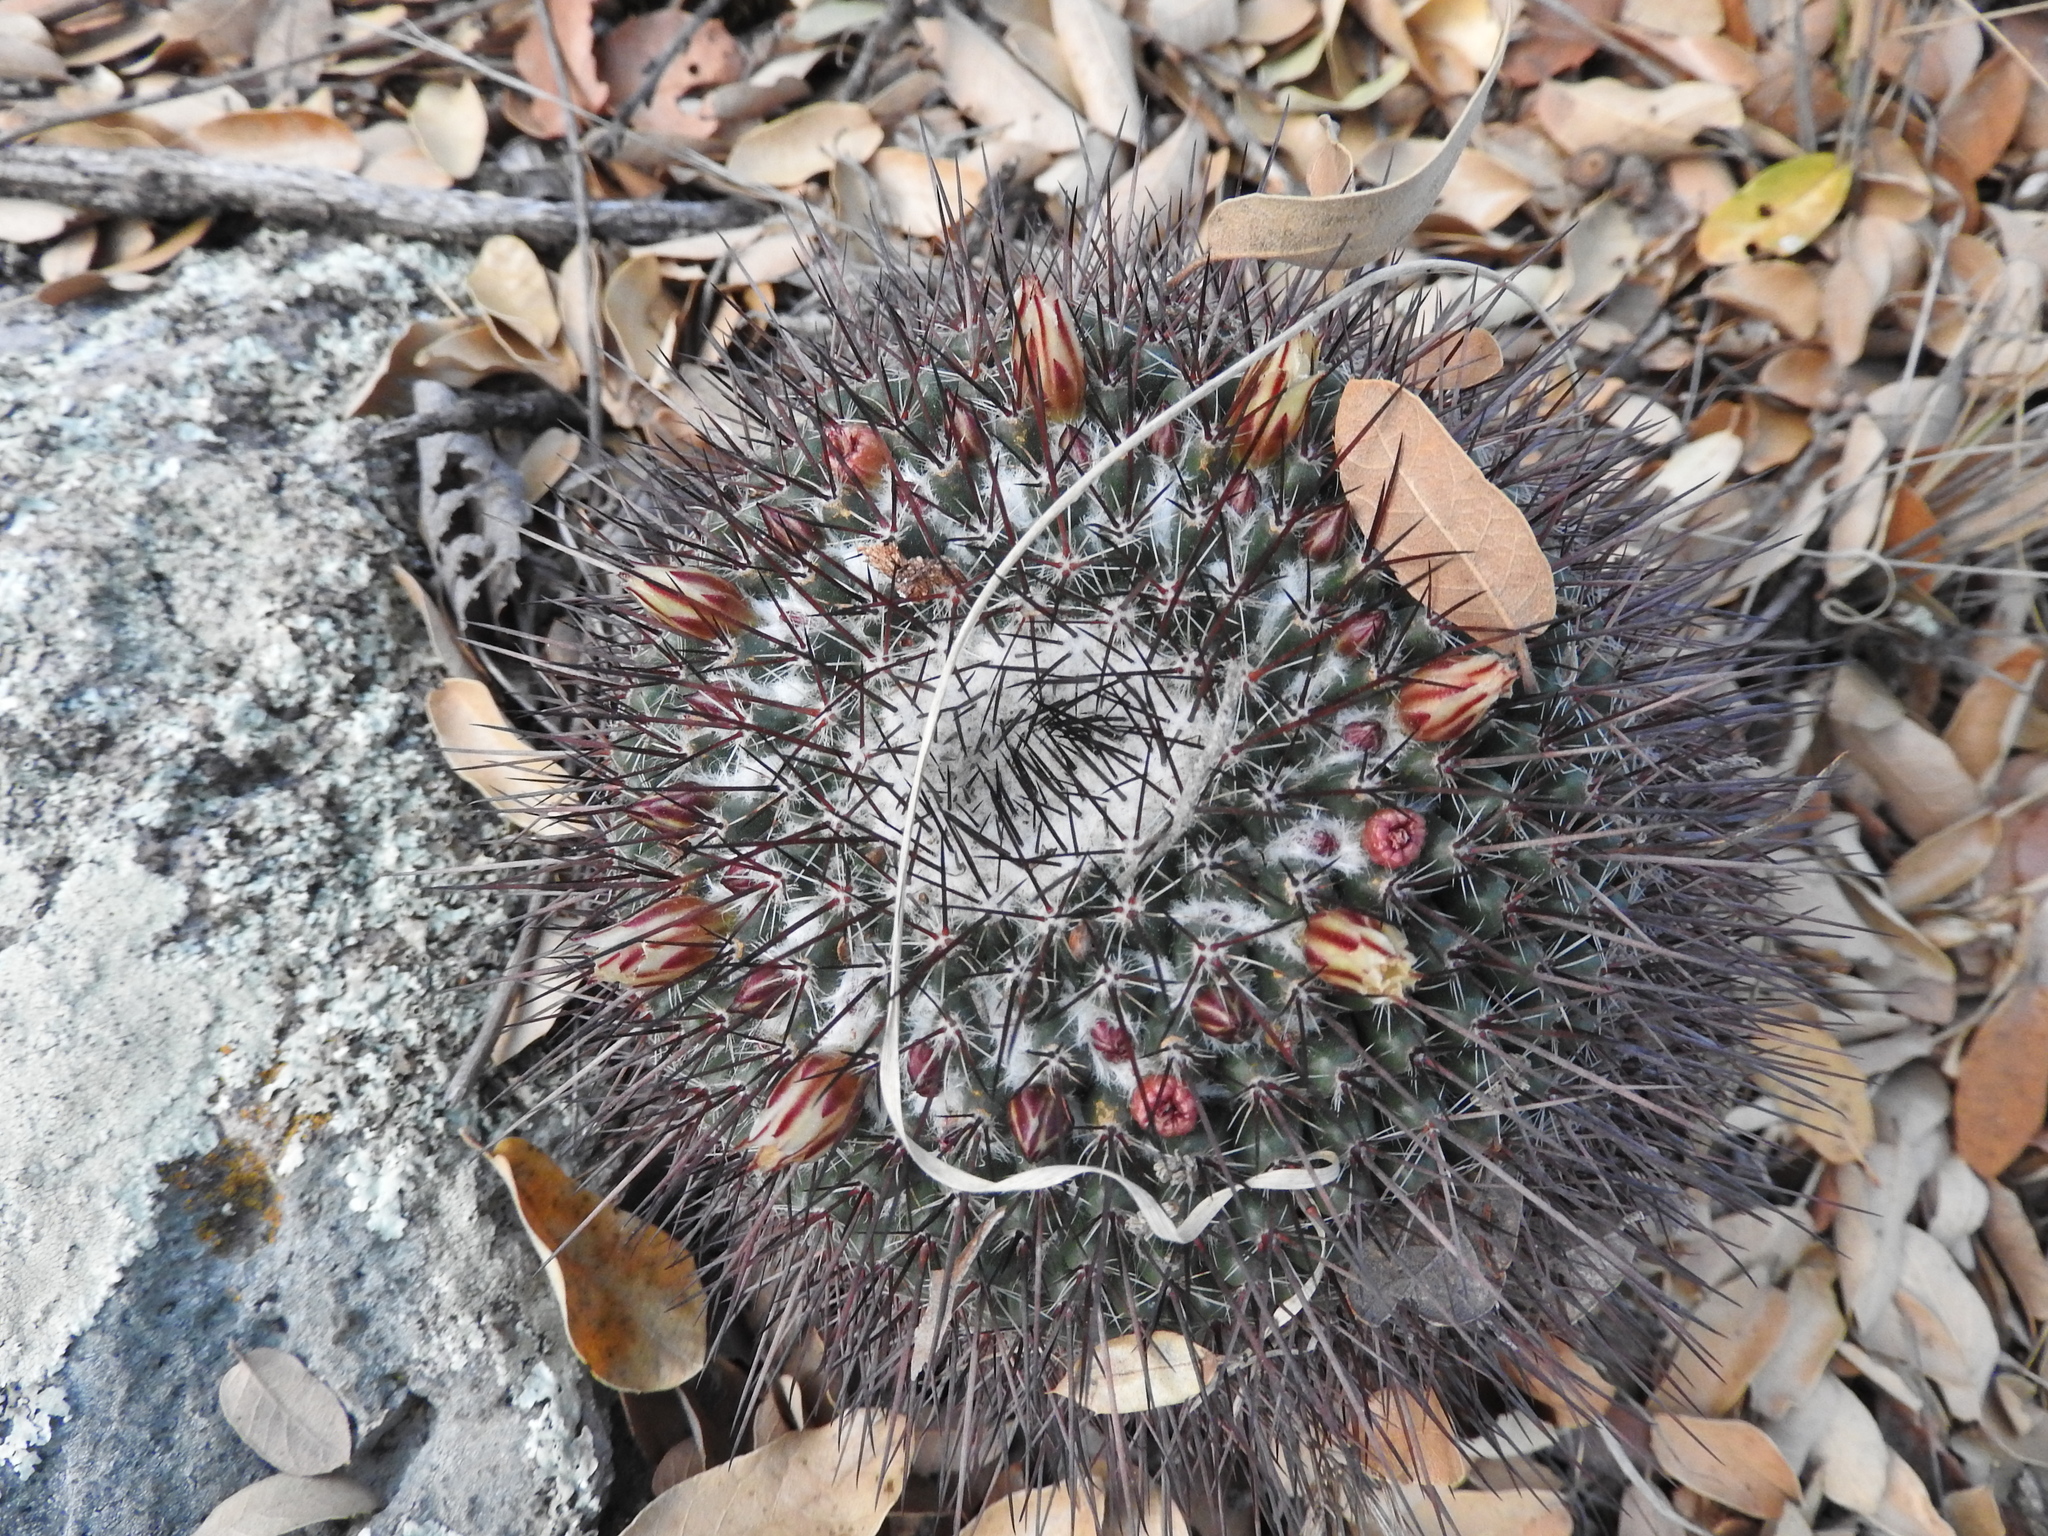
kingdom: Plantae
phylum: Tracheophyta
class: Magnoliopsida
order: Caryophyllales
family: Cactaceae
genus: Mammillaria
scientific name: Mammillaria gigantea
